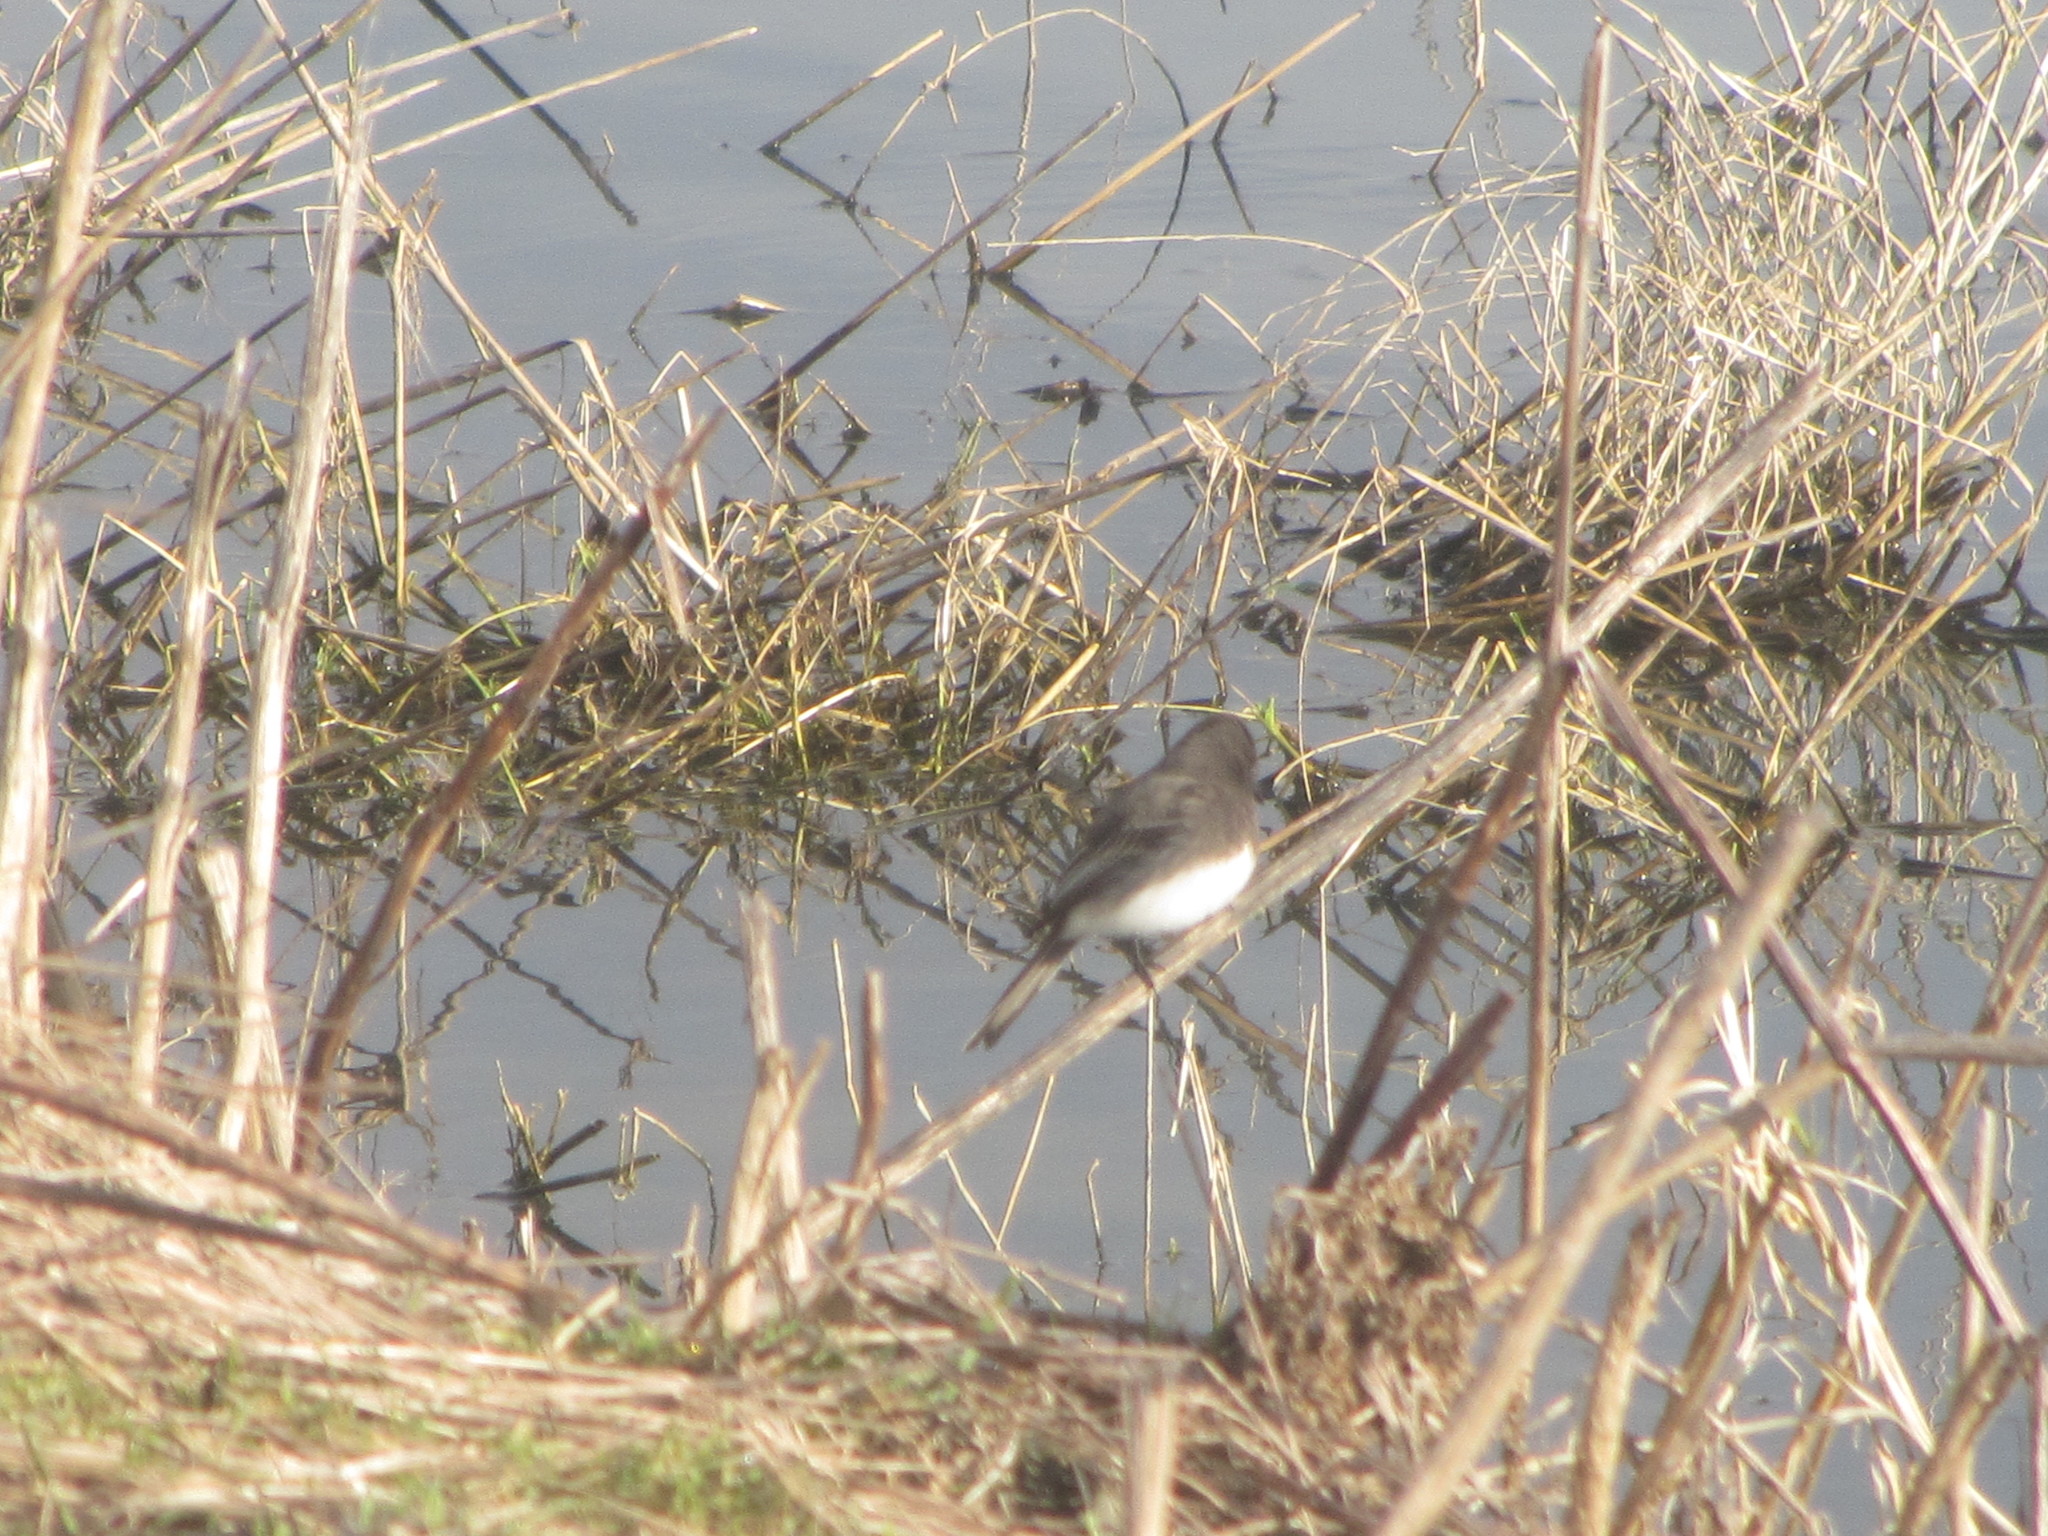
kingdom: Animalia
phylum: Chordata
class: Aves
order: Passeriformes
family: Tyrannidae
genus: Sayornis
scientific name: Sayornis nigricans
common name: Black phoebe
